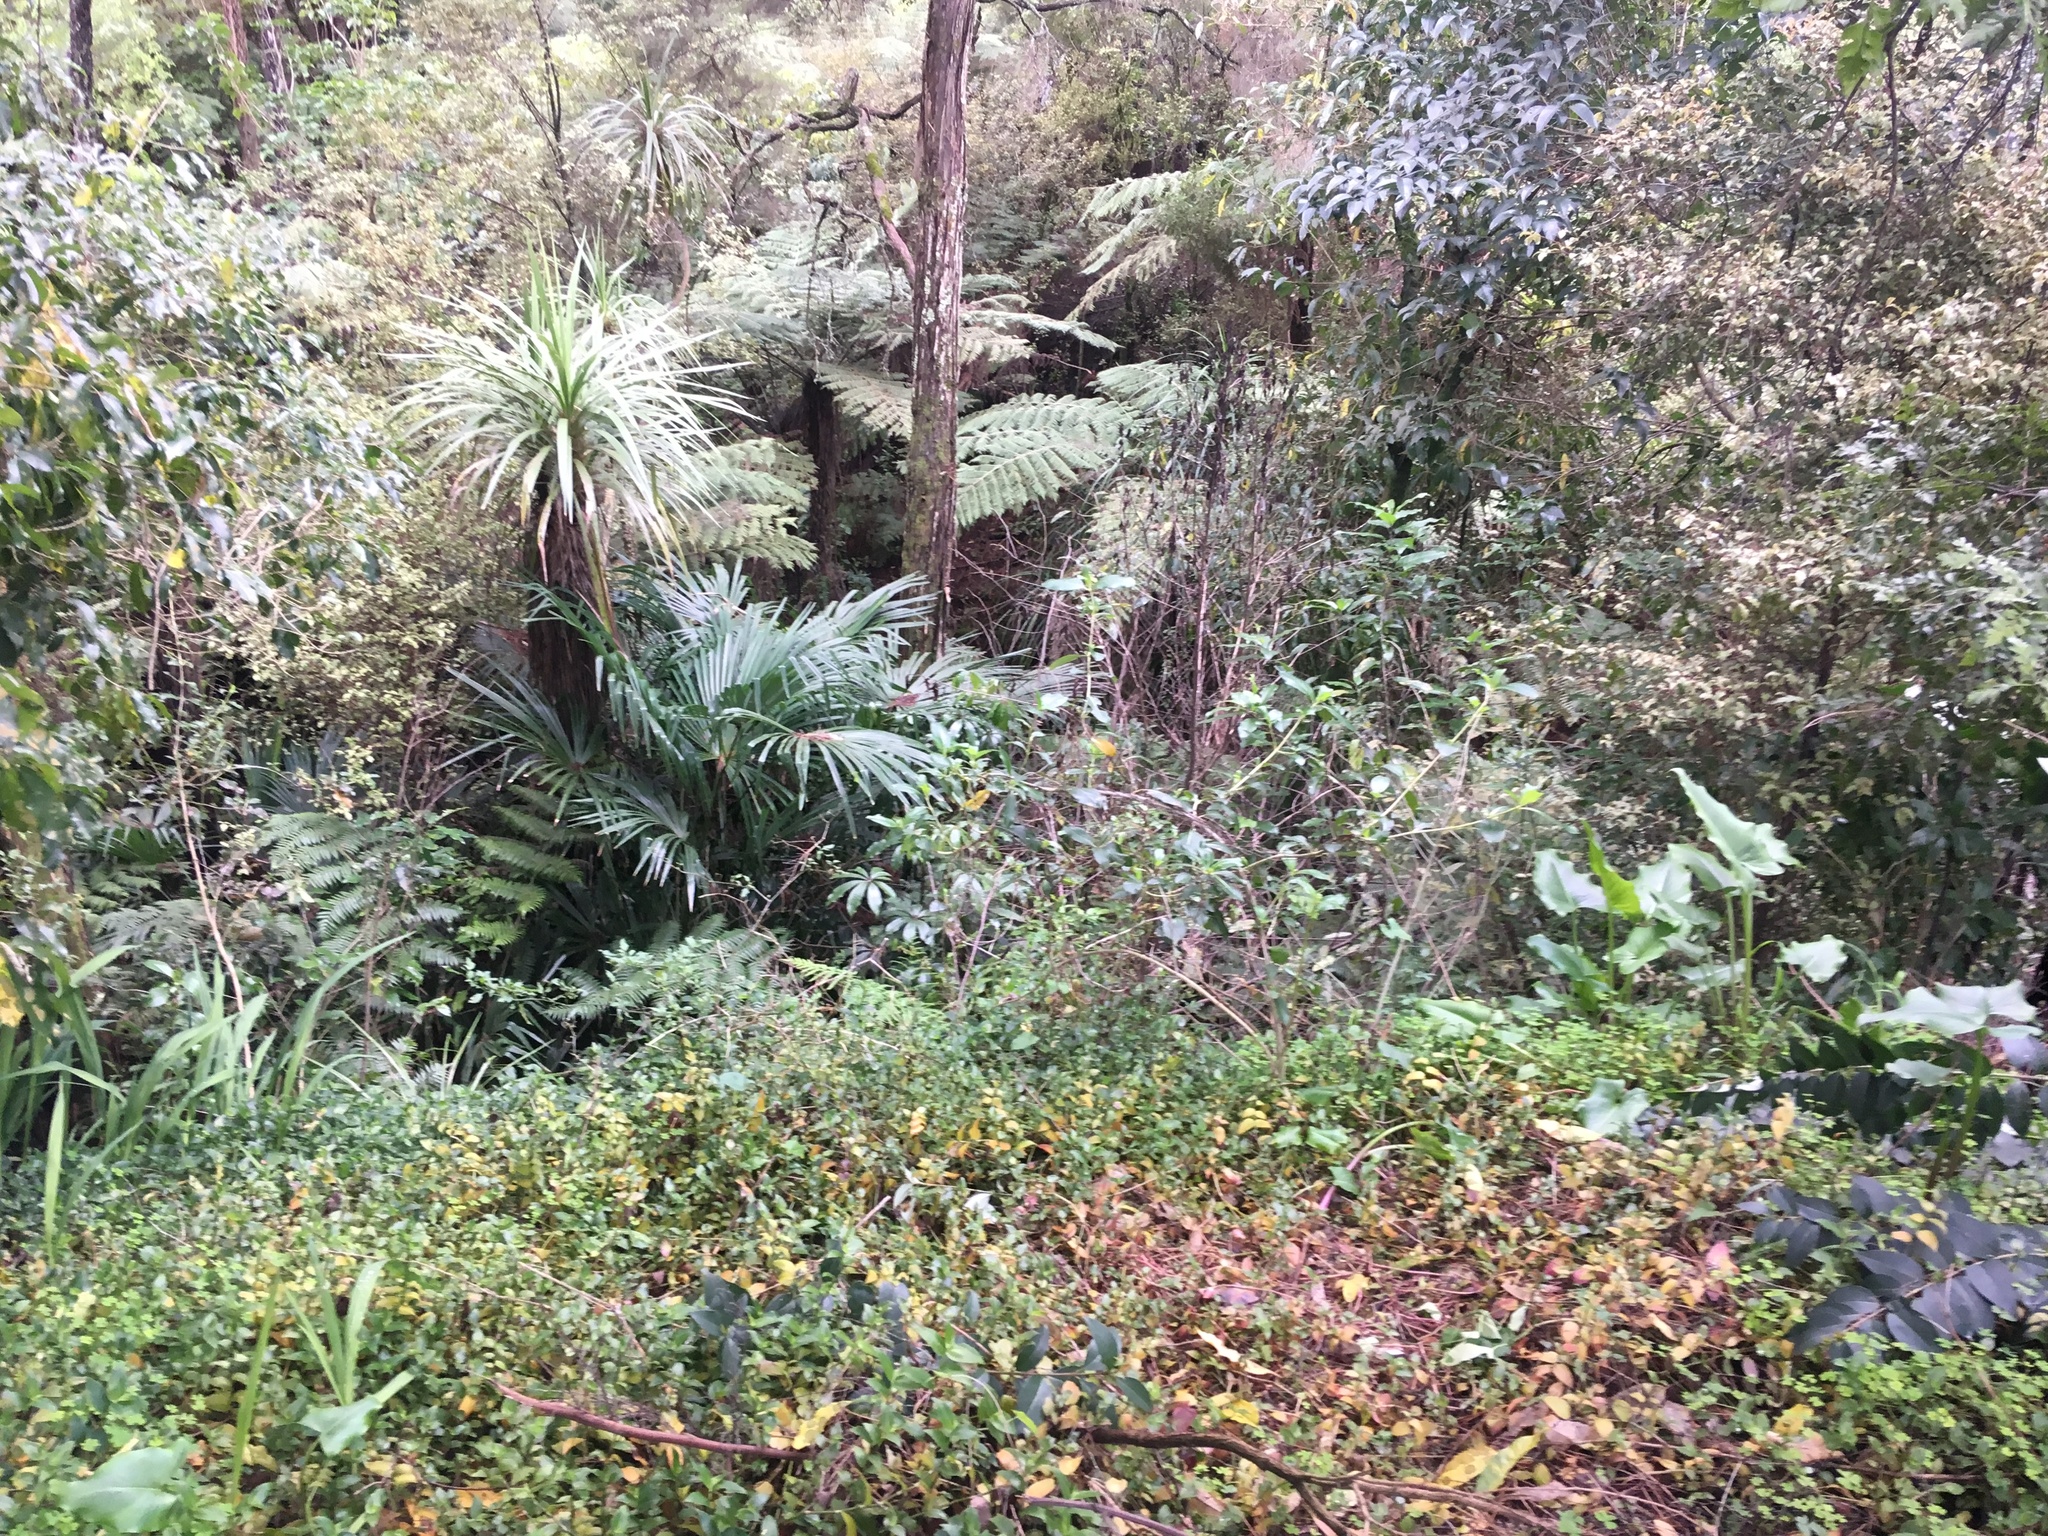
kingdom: Plantae
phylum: Tracheophyta
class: Liliopsida
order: Arecales
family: Arecaceae
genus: Trachycarpus
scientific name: Trachycarpus fortunei
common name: Chusan palm
